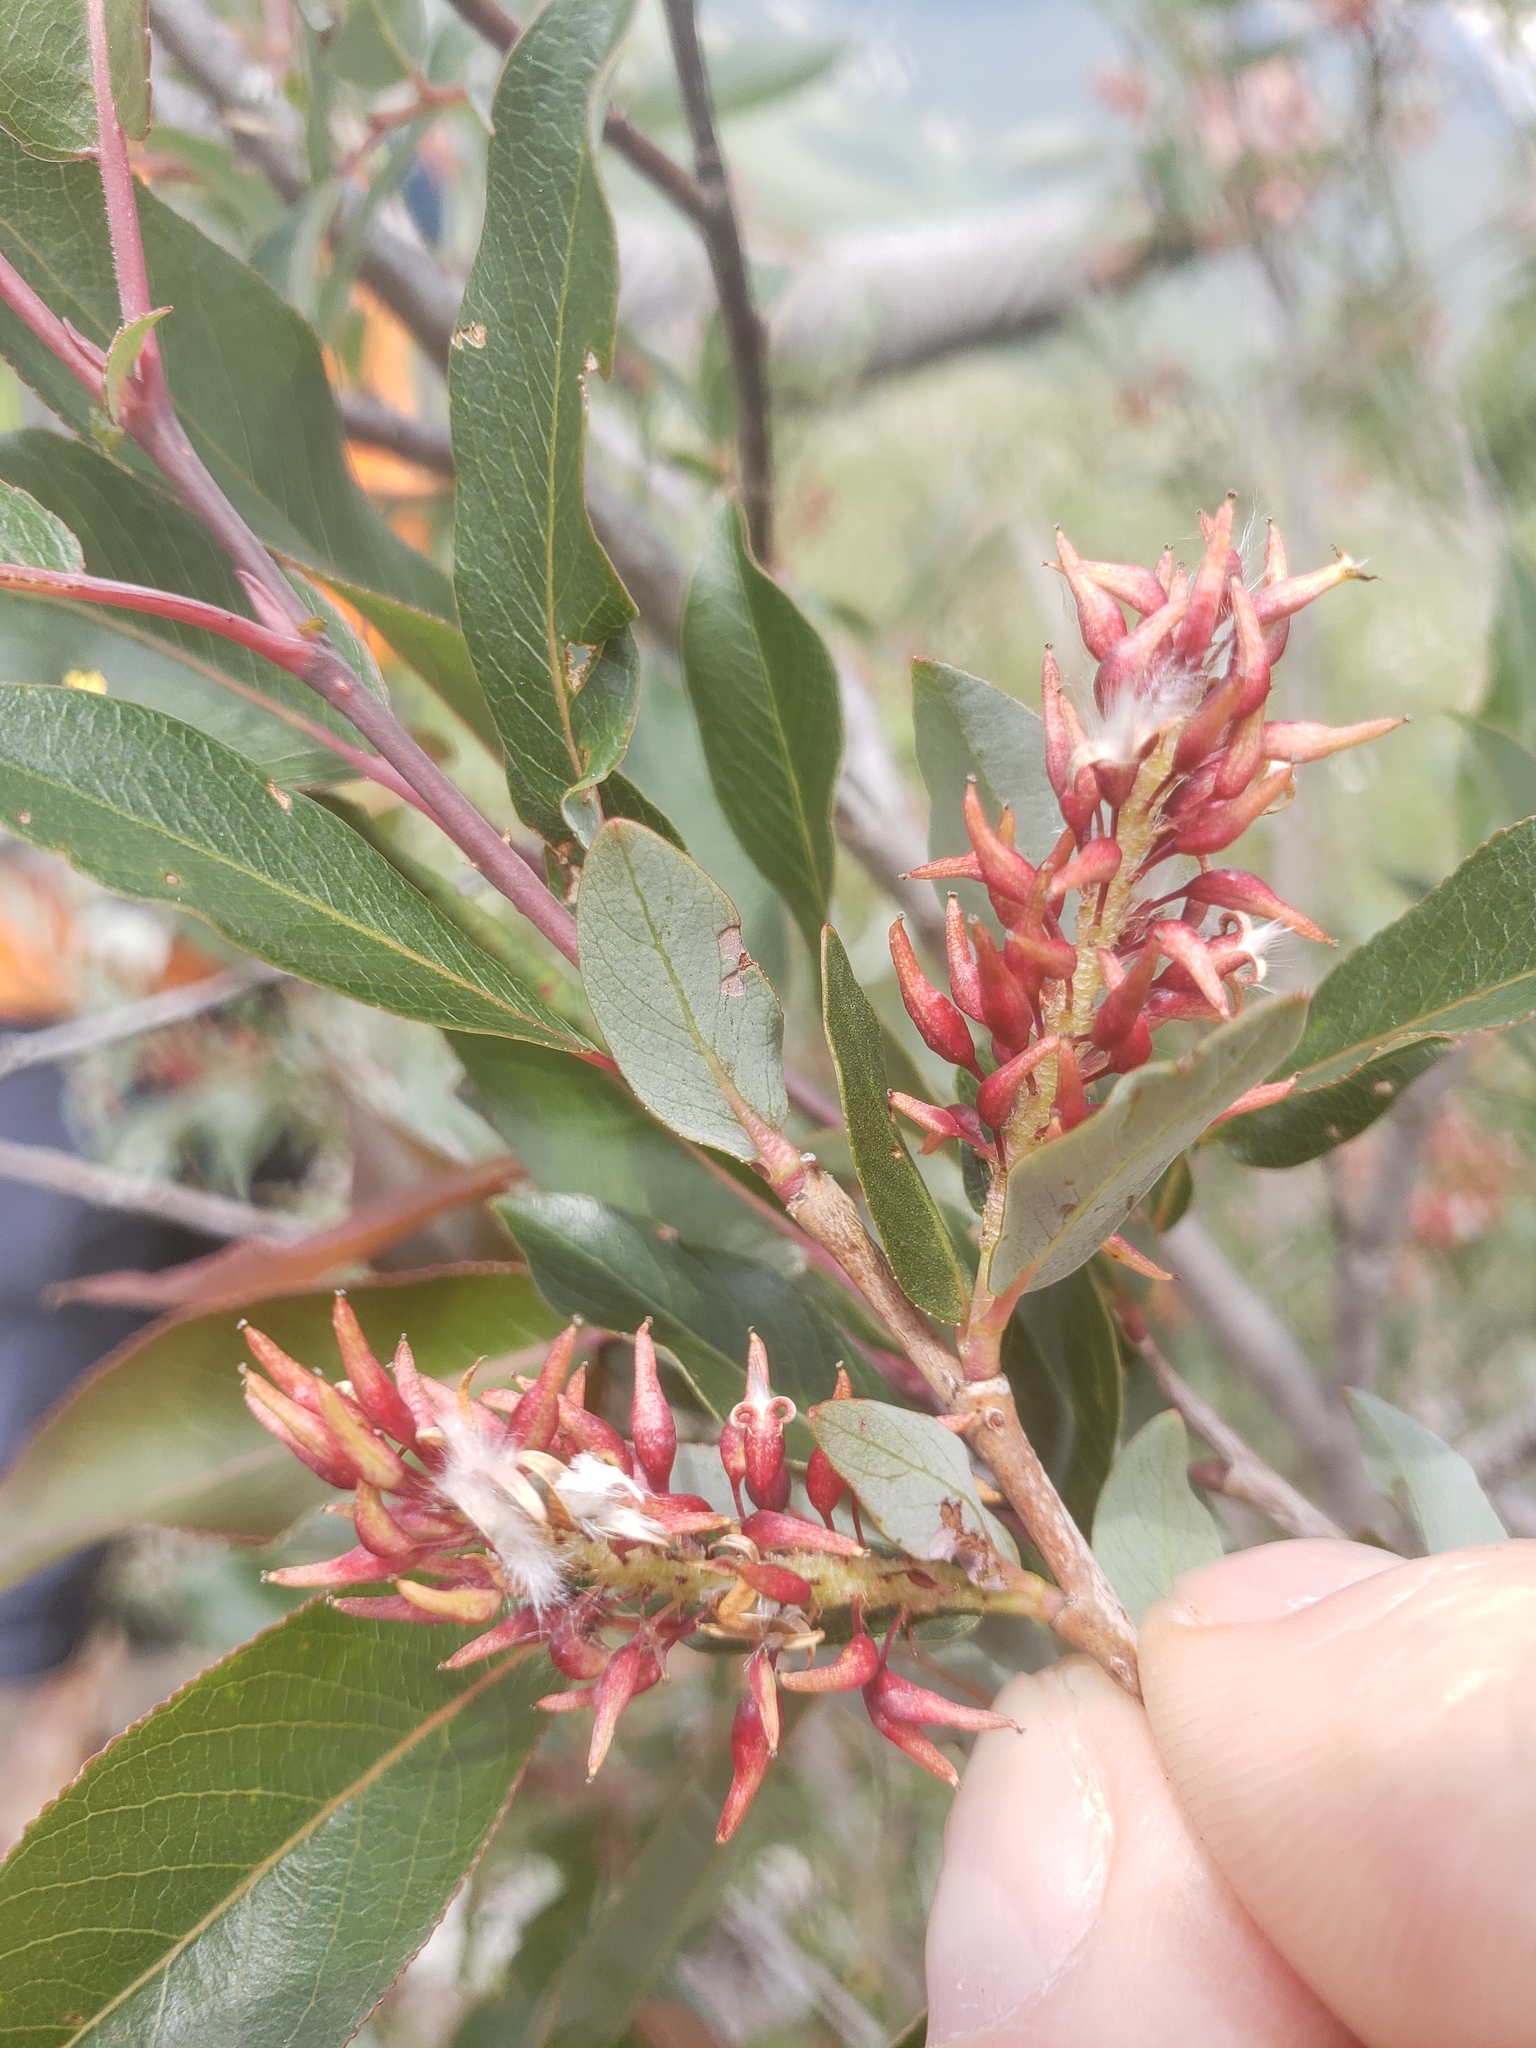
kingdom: Plantae
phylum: Tracheophyta
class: Magnoliopsida
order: Malpighiales
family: Salicaceae
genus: Salix
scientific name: Salix prolixa
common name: Mackenzie's willow
